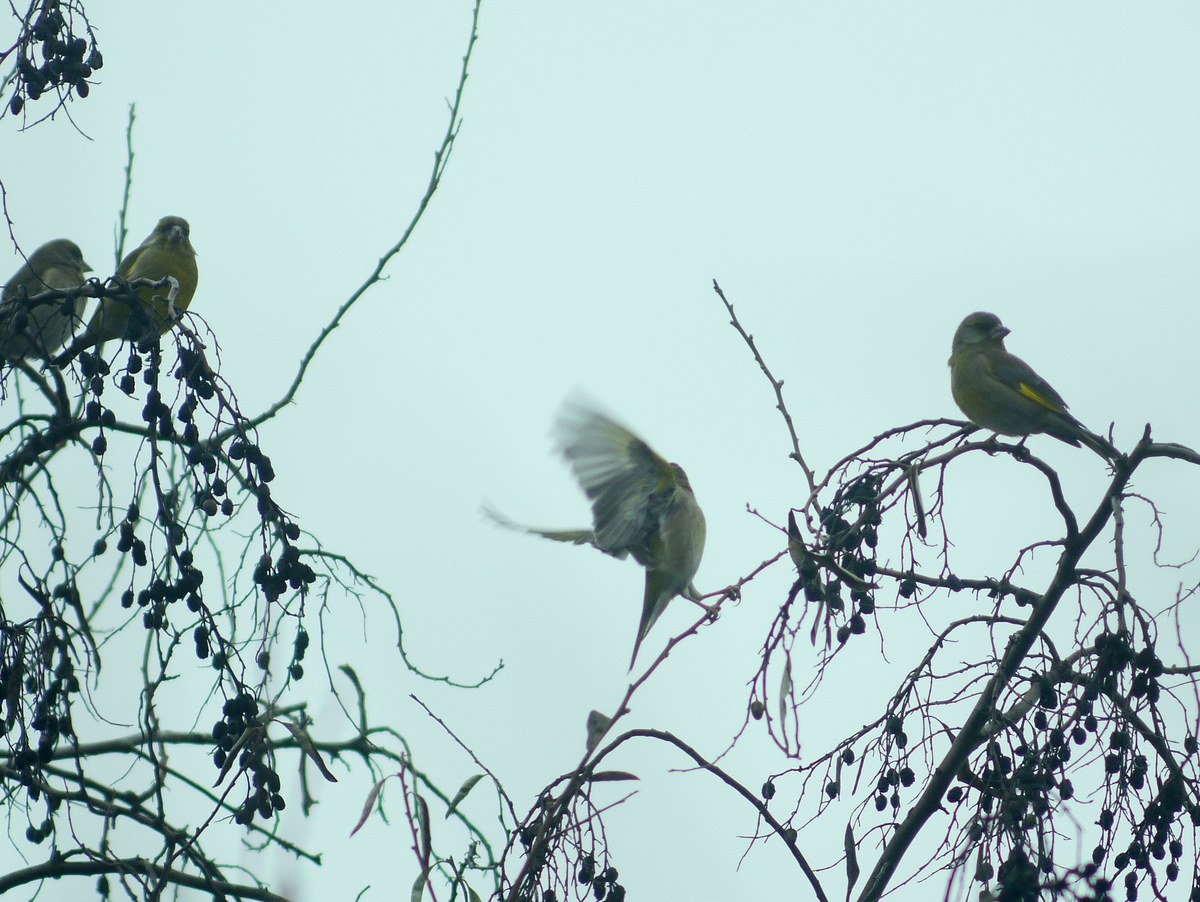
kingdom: Plantae
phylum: Tracheophyta
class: Liliopsida
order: Poales
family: Poaceae
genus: Chloris
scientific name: Chloris chloris
